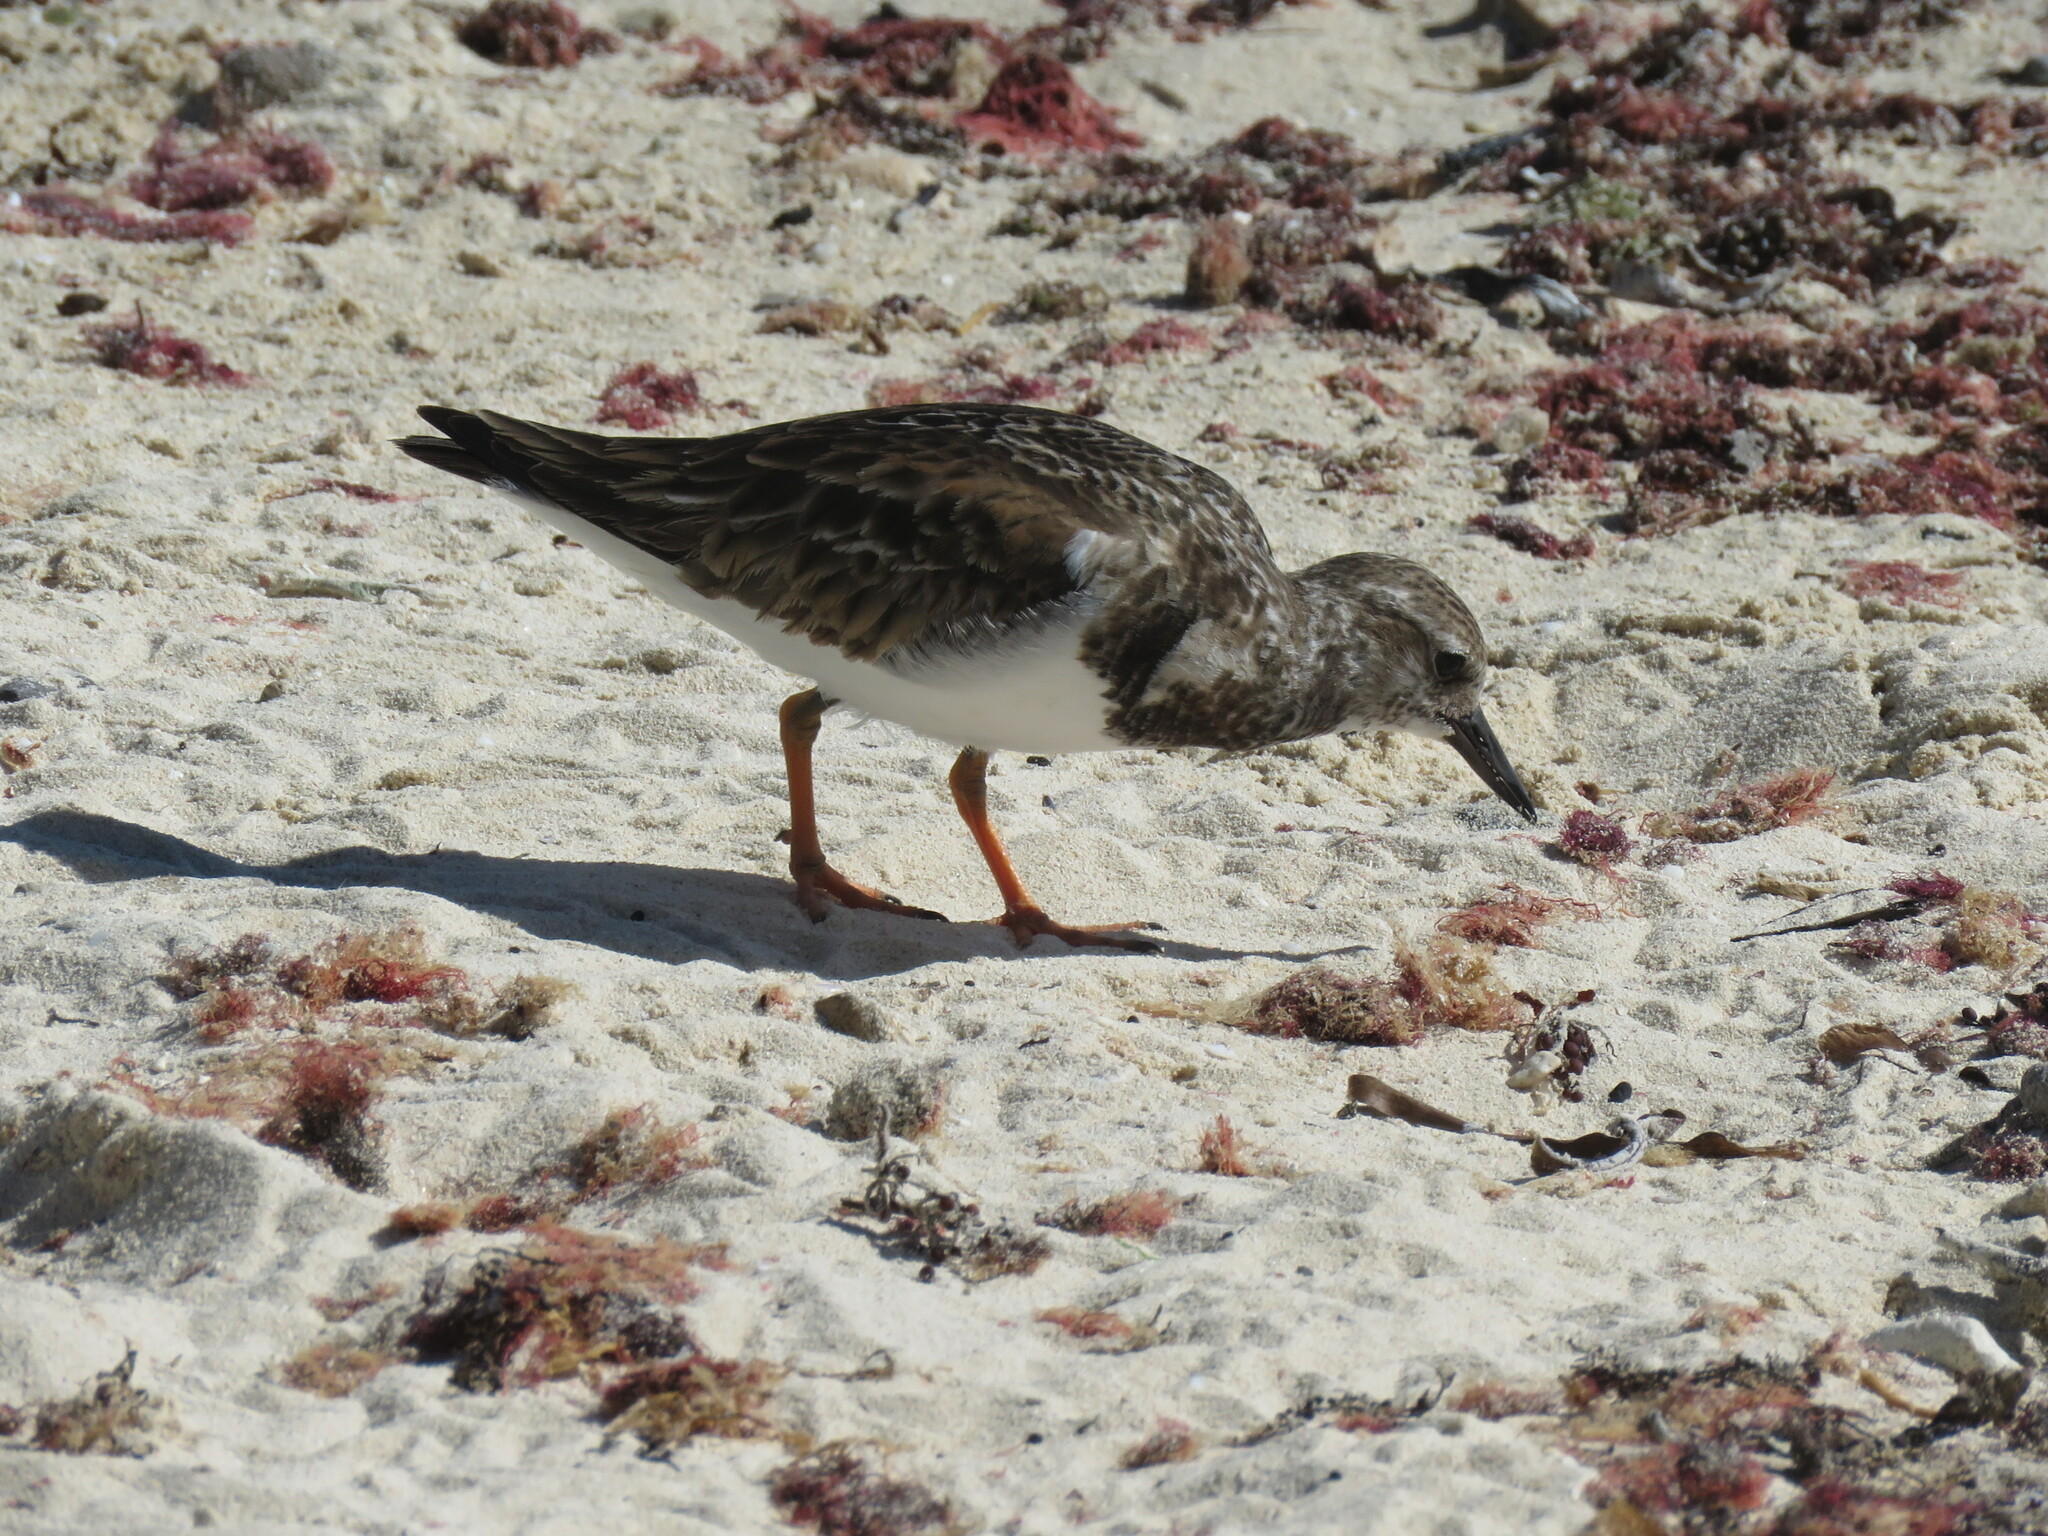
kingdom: Animalia
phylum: Chordata
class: Aves
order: Charadriiformes
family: Scolopacidae
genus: Arenaria
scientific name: Arenaria interpres
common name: Ruddy turnstone
